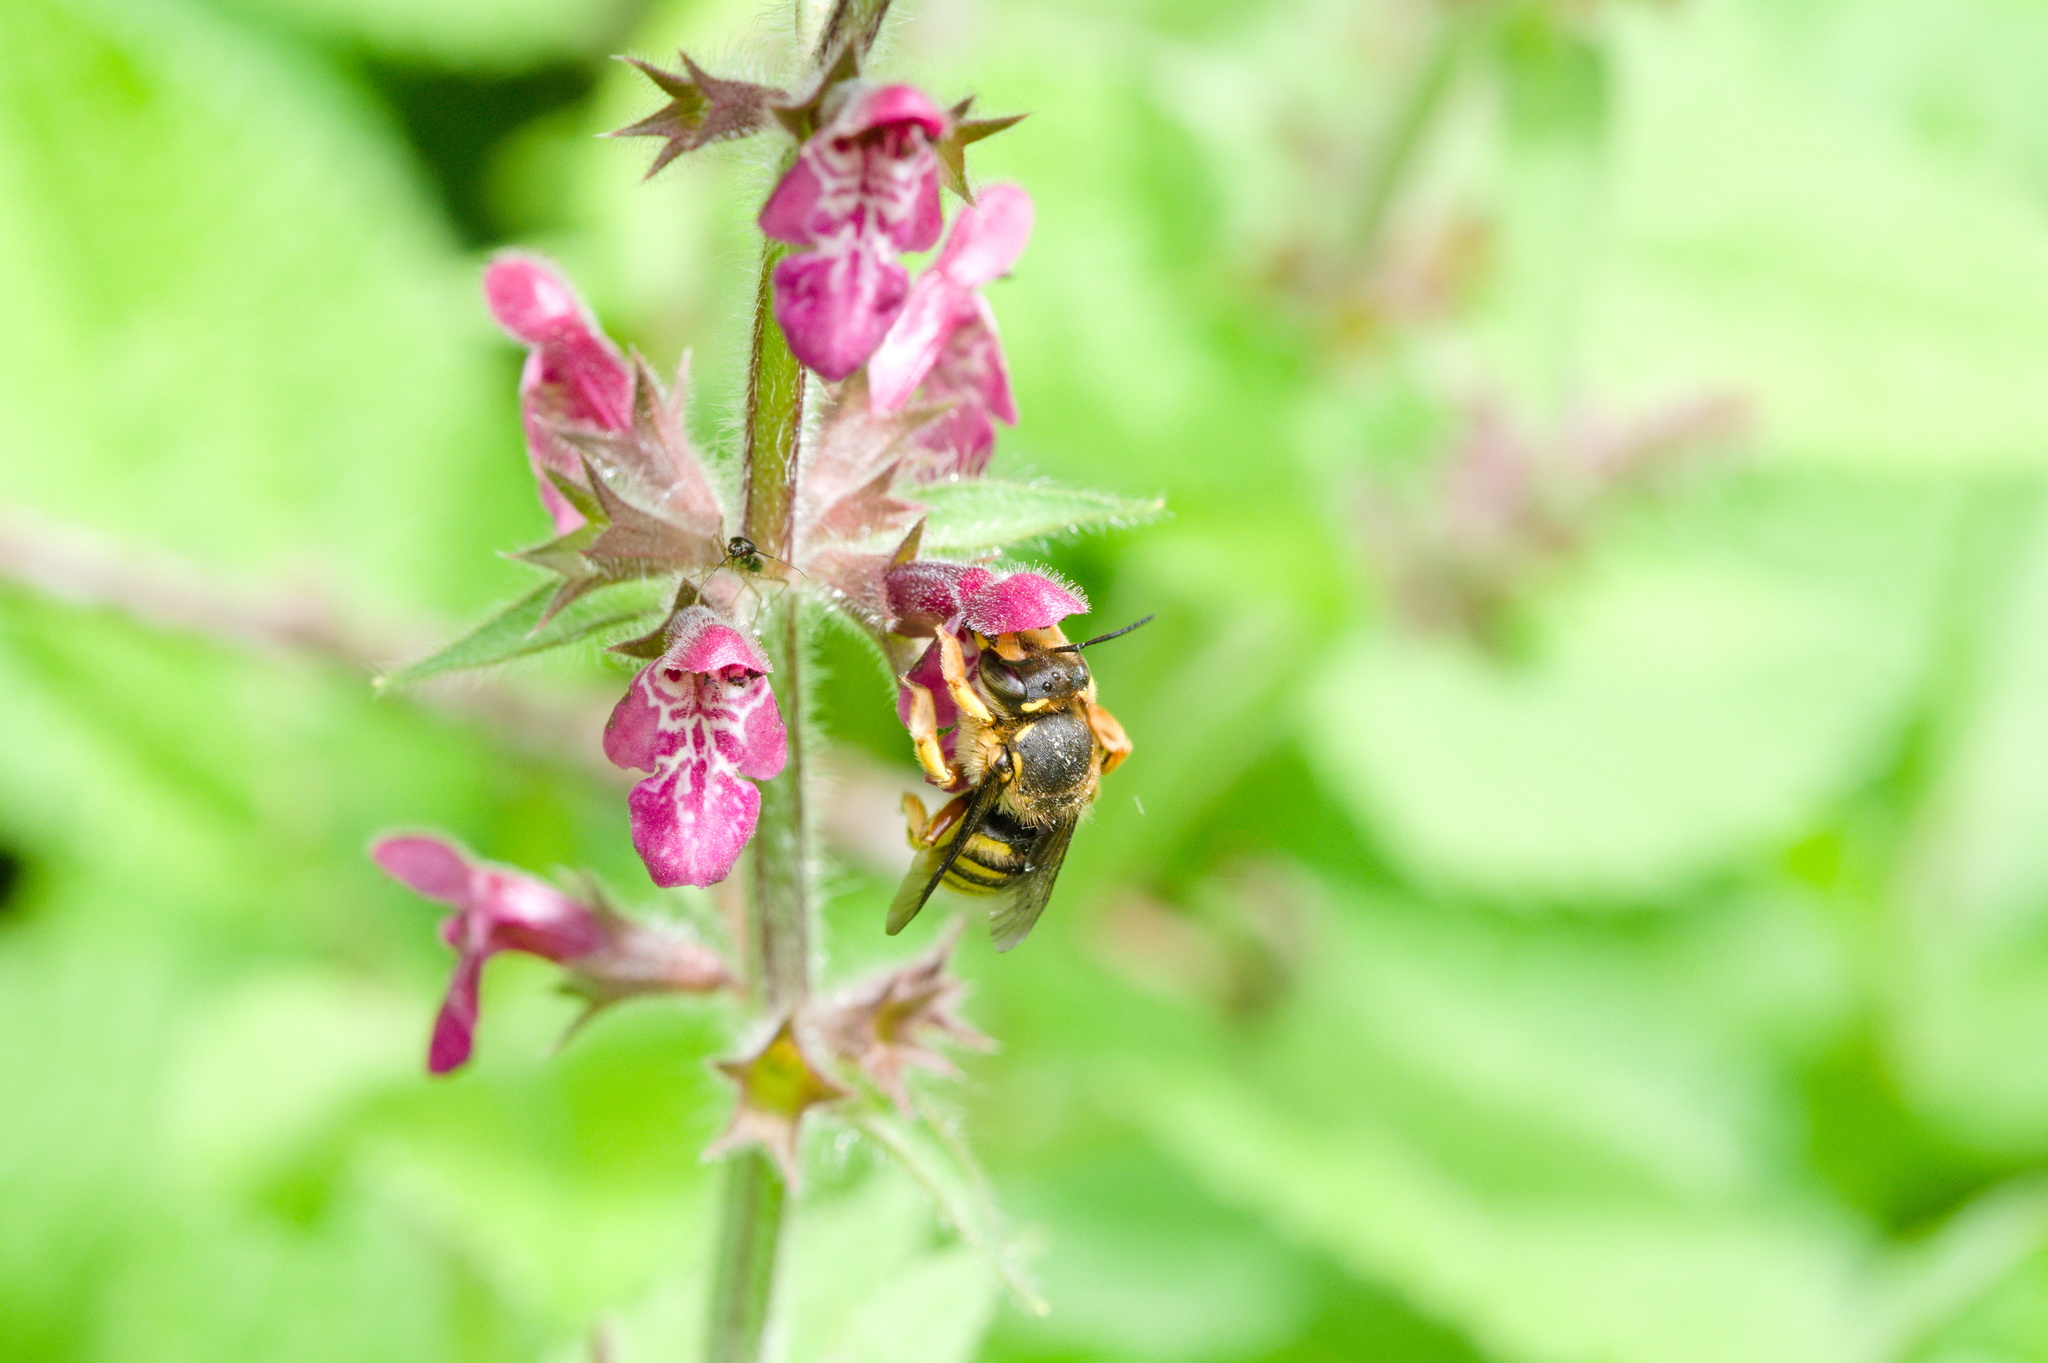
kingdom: Animalia
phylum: Arthropoda
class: Insecta
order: Hymenoptera
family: Megachilidae
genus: Anthidium
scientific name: Anthidium manicatum
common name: Wool carder bee
